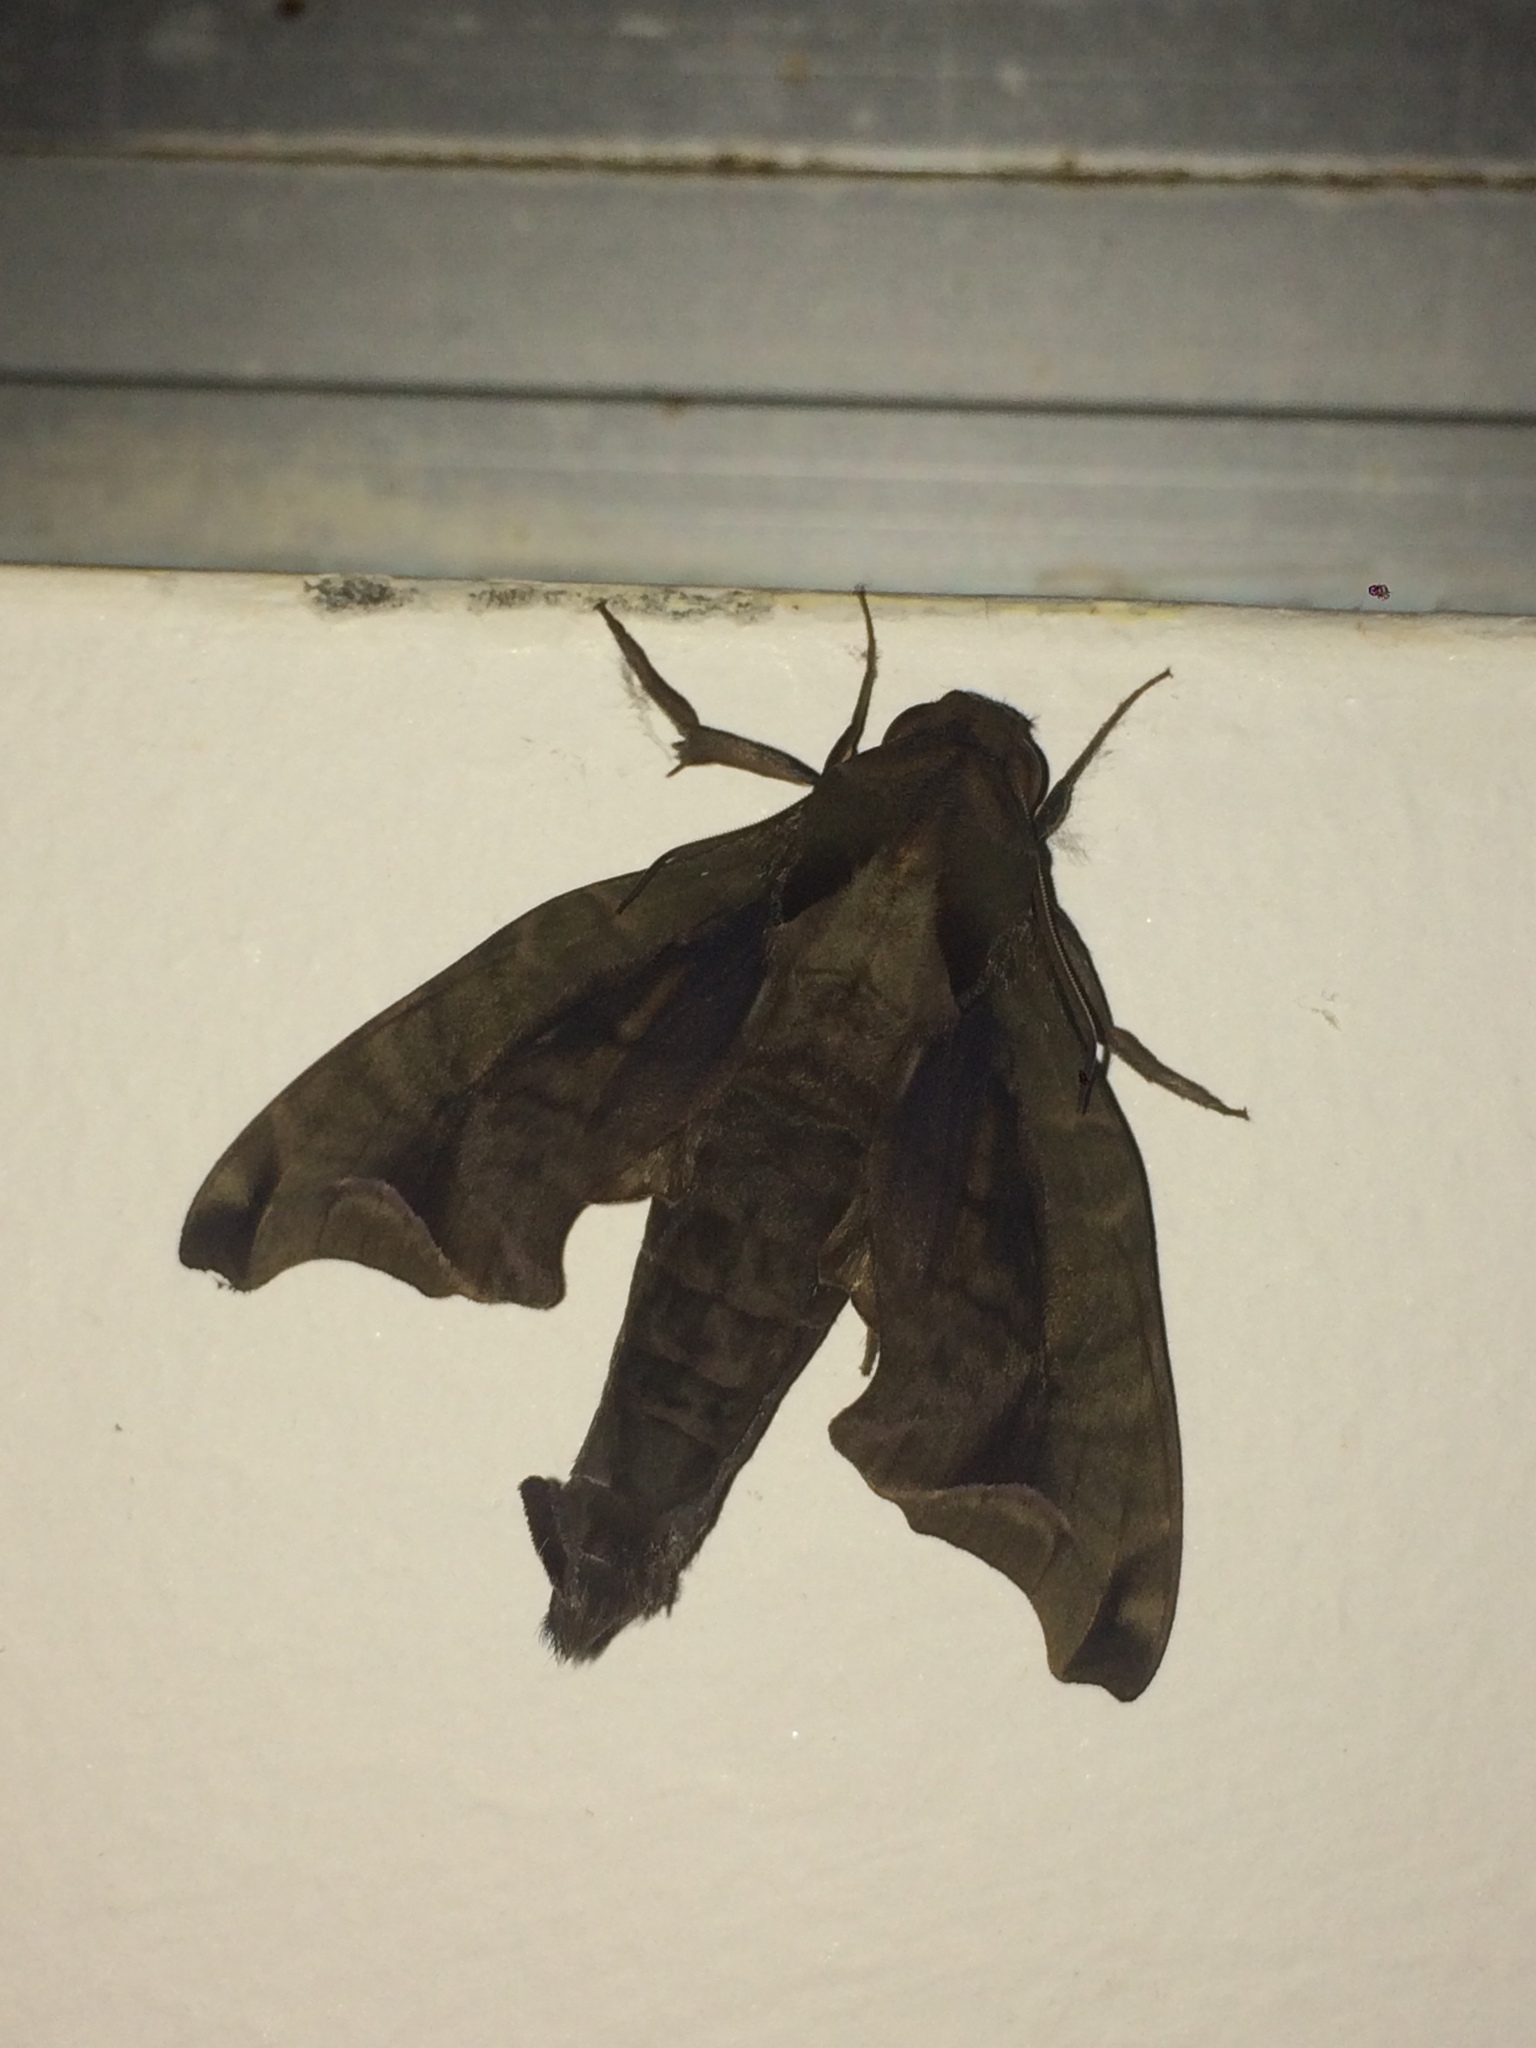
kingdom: Animalia
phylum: Arthropoda
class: Insecta
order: Lepidoptera
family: Sphingidae
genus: Enyo
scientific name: Enyo gorgon
